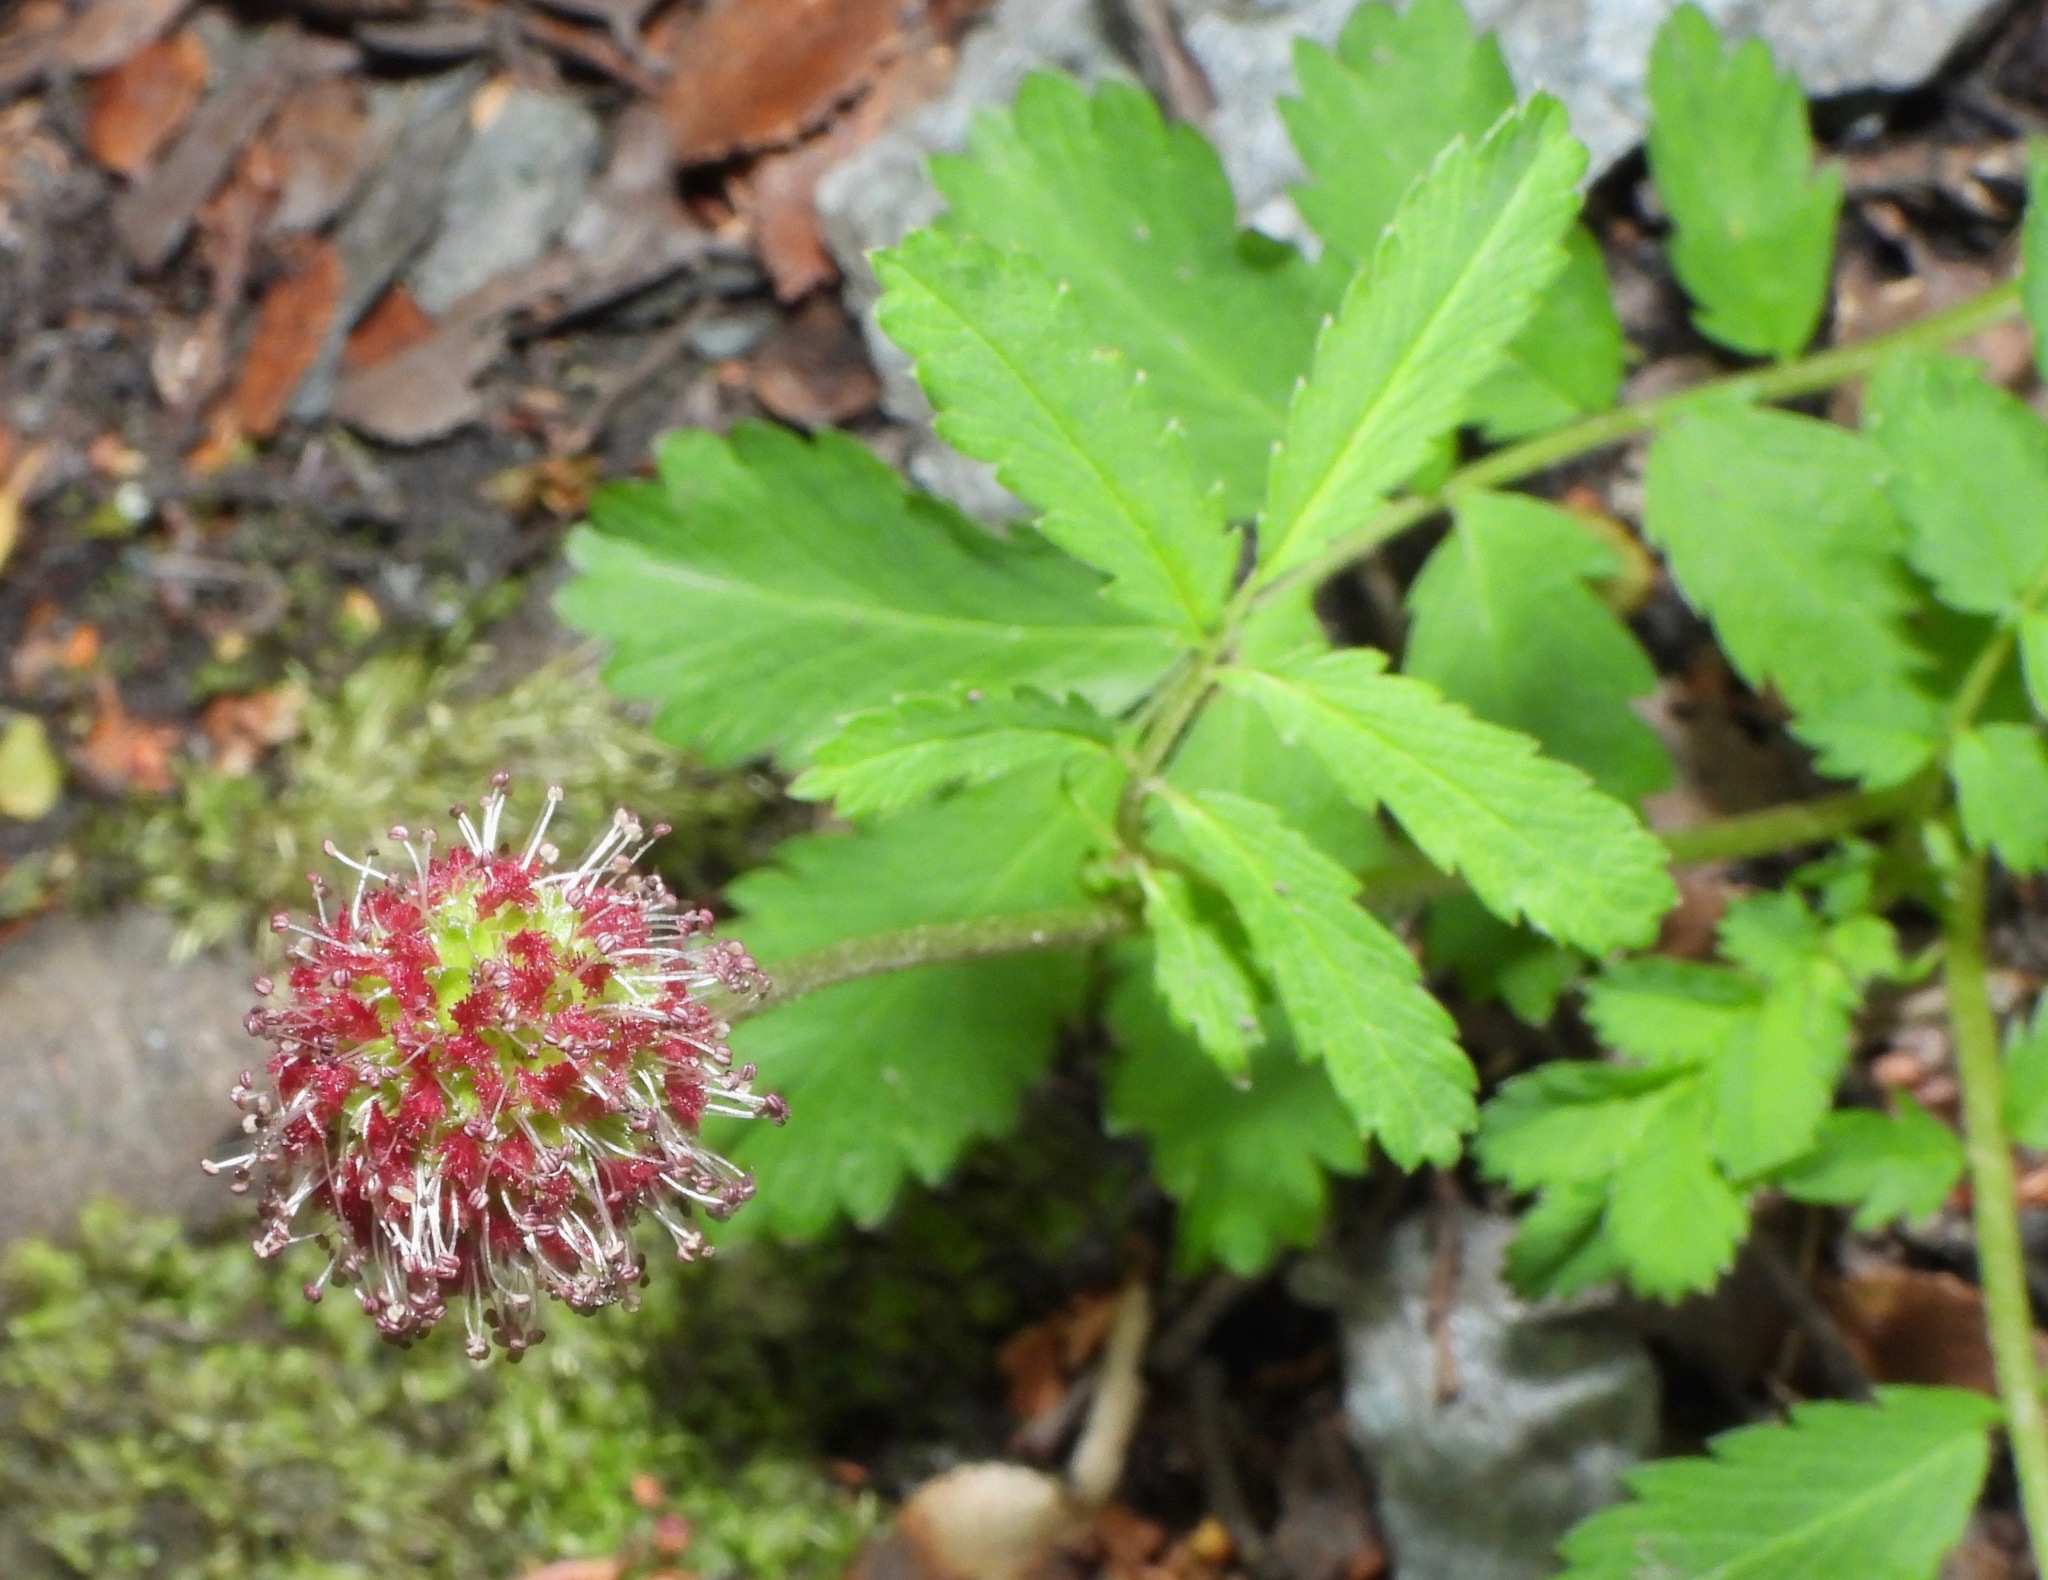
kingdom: Plantae
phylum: Tracheophyta
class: Magnoliopsida
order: Rosales
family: Rosaceae
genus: Acaena
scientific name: Acaena magellanica
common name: New zealand burr
